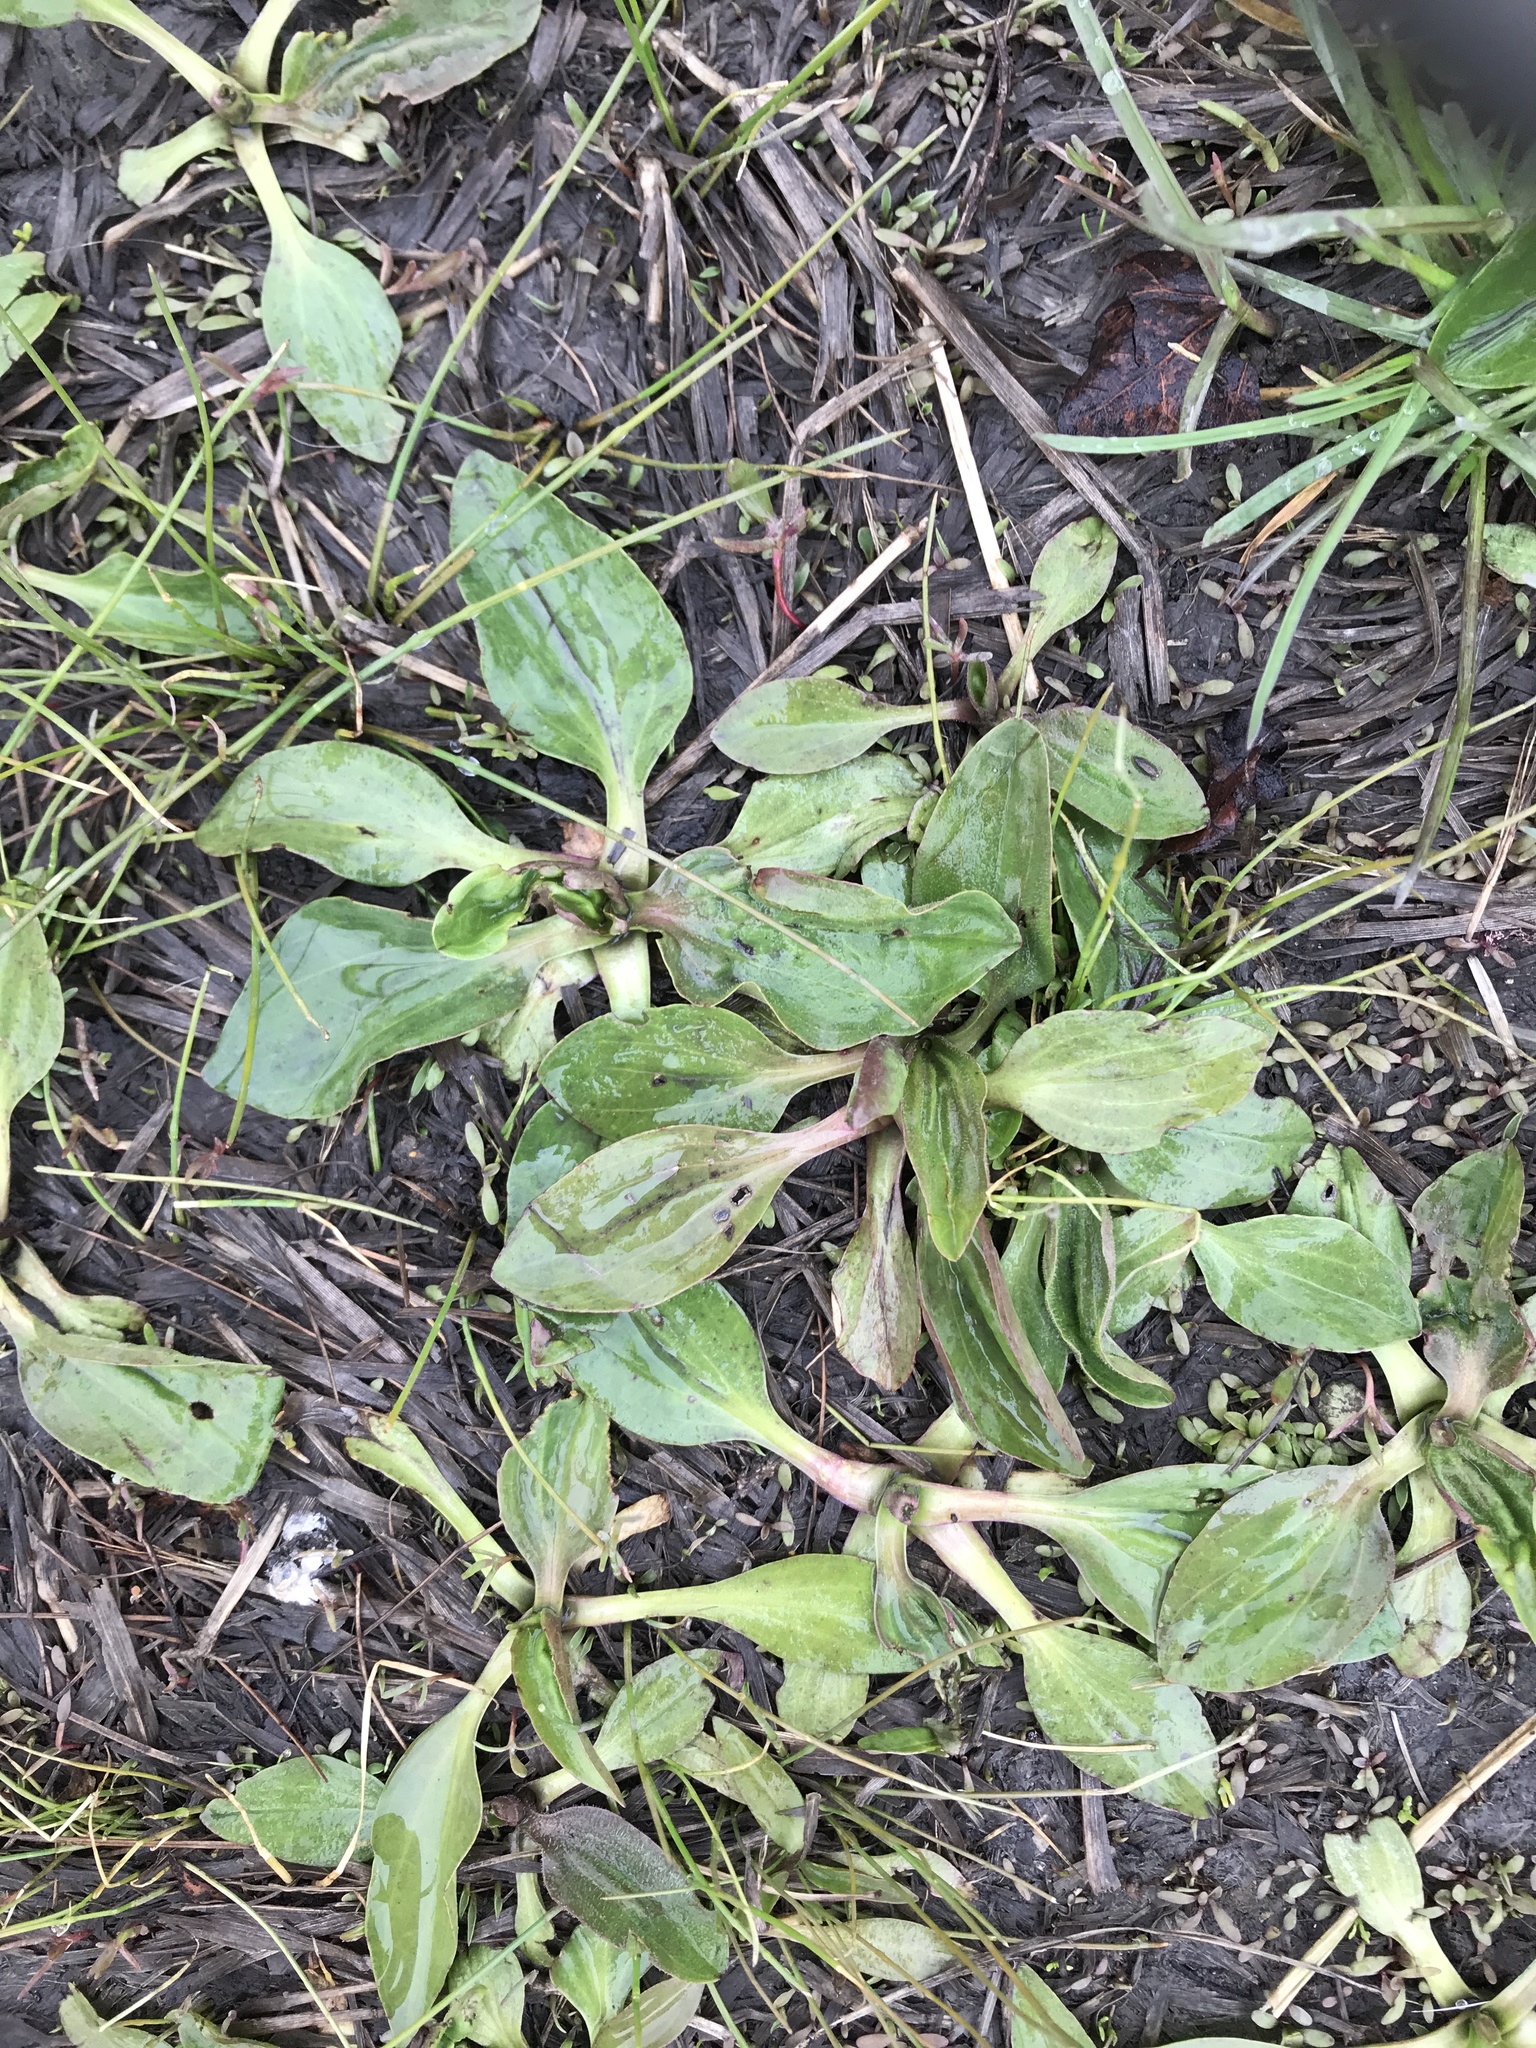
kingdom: Plantae
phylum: Tracheophyta
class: Magnoliopsida
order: Lamiales
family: Plantaginaceae
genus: Plantago
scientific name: Plantago major
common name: Common plantain
